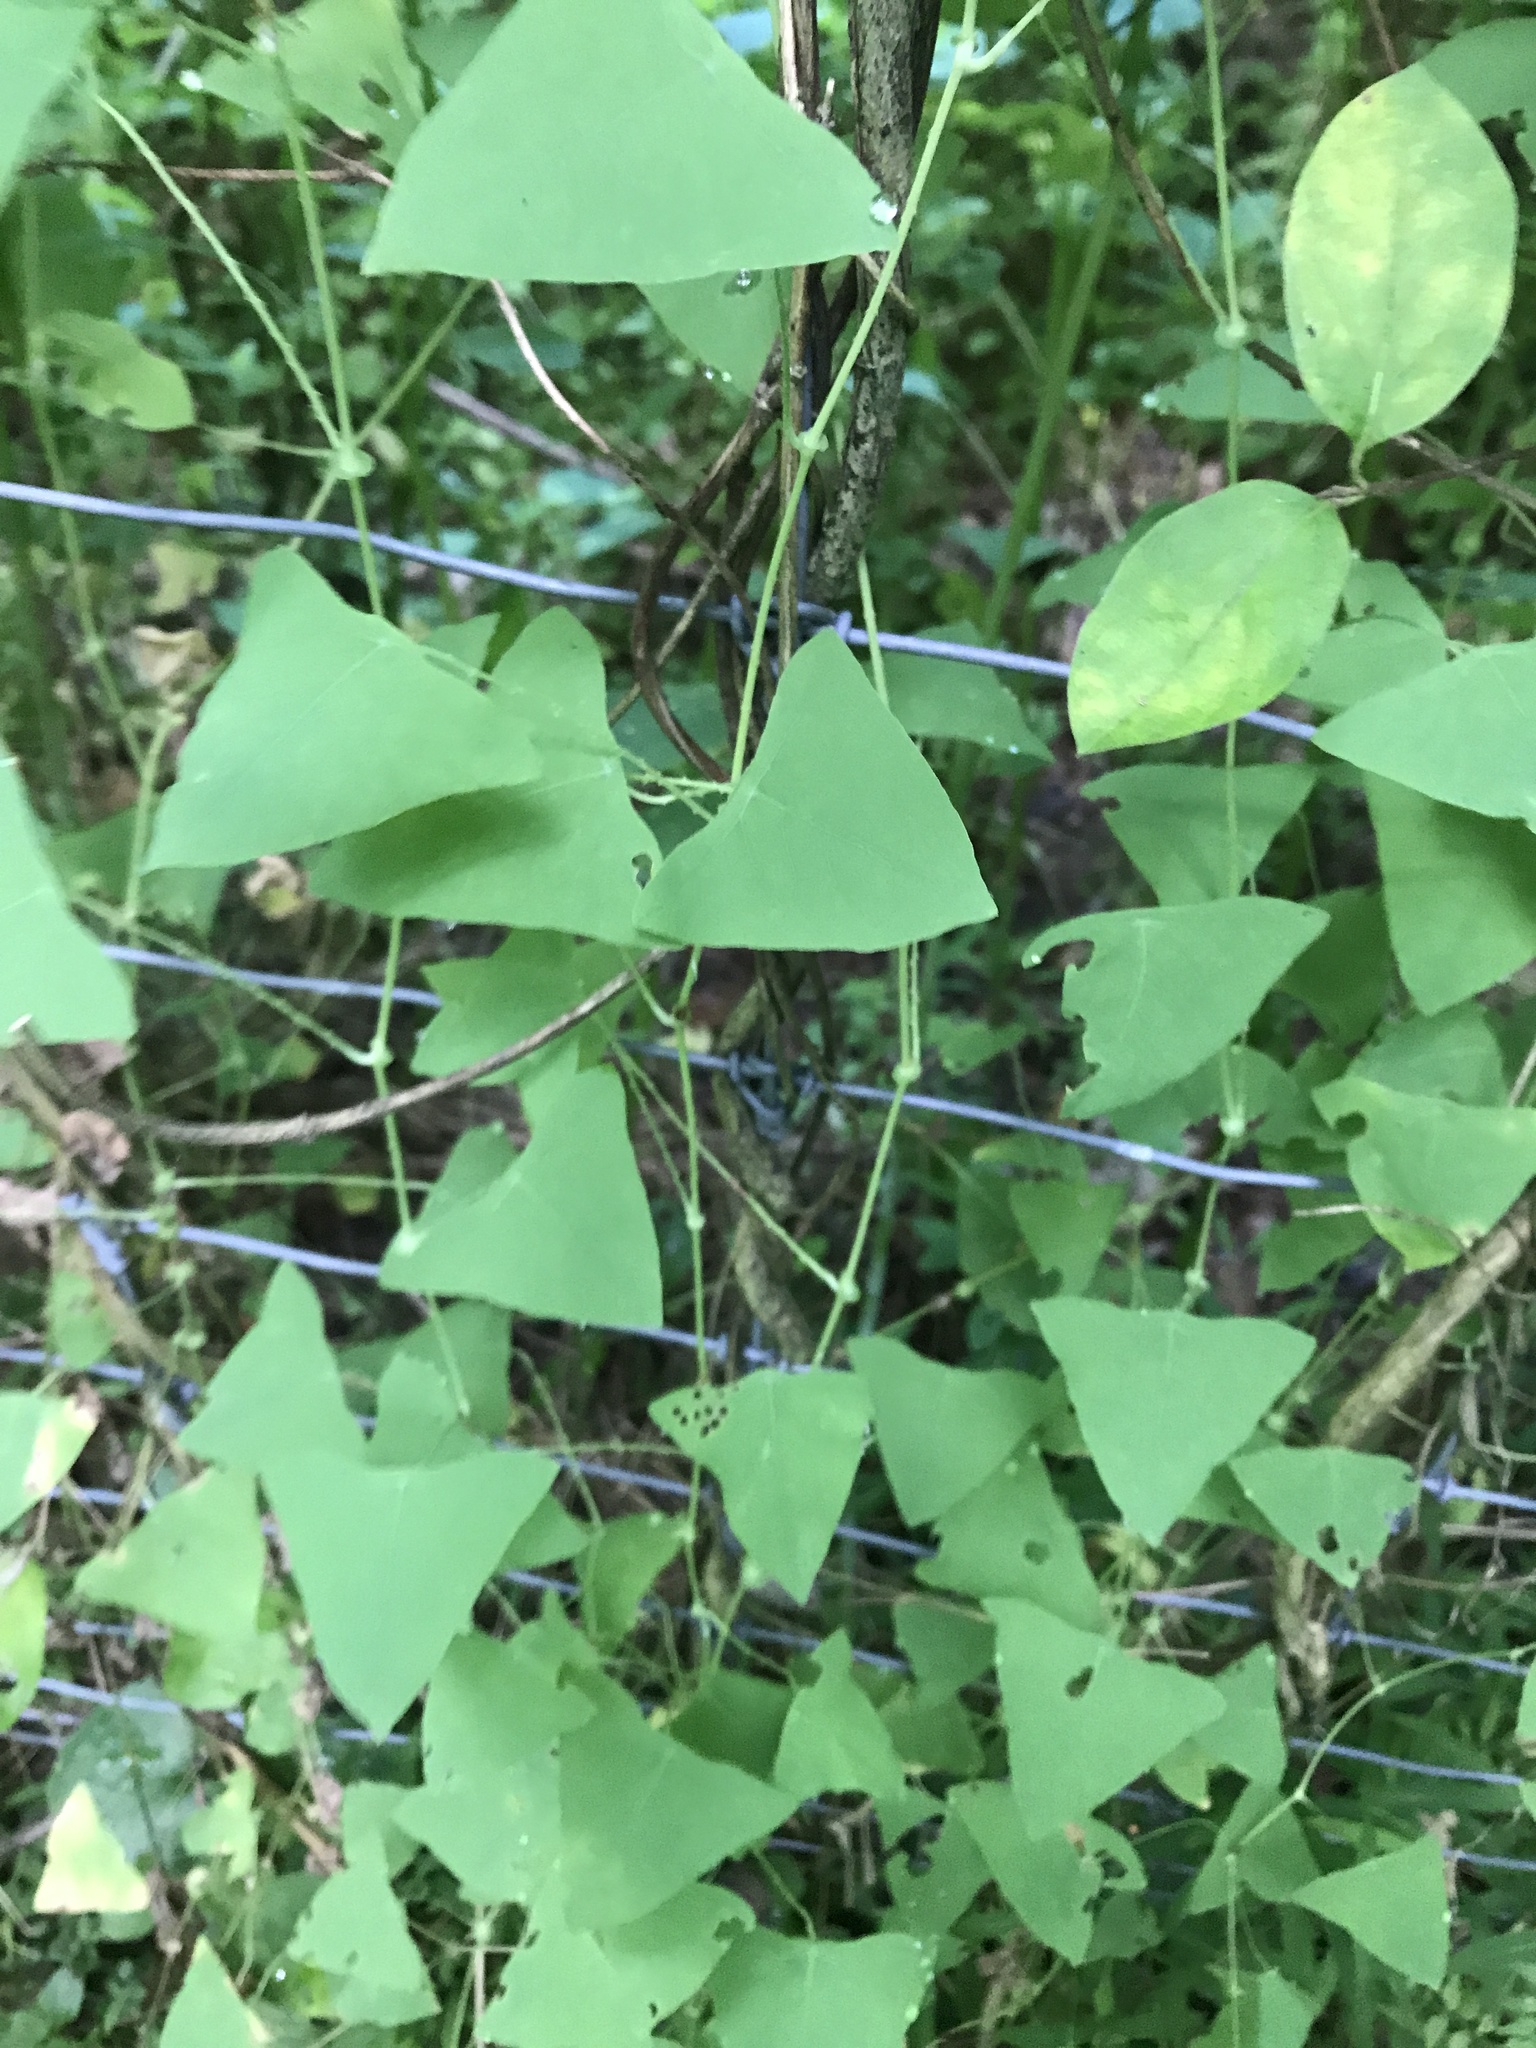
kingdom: Plantae
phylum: Tracheophyta
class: Magnoliopsida
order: Caryophyllales
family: Polygonaceae
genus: Persicaria
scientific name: Persicaria perfoliata
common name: Asiatic tearthumb
